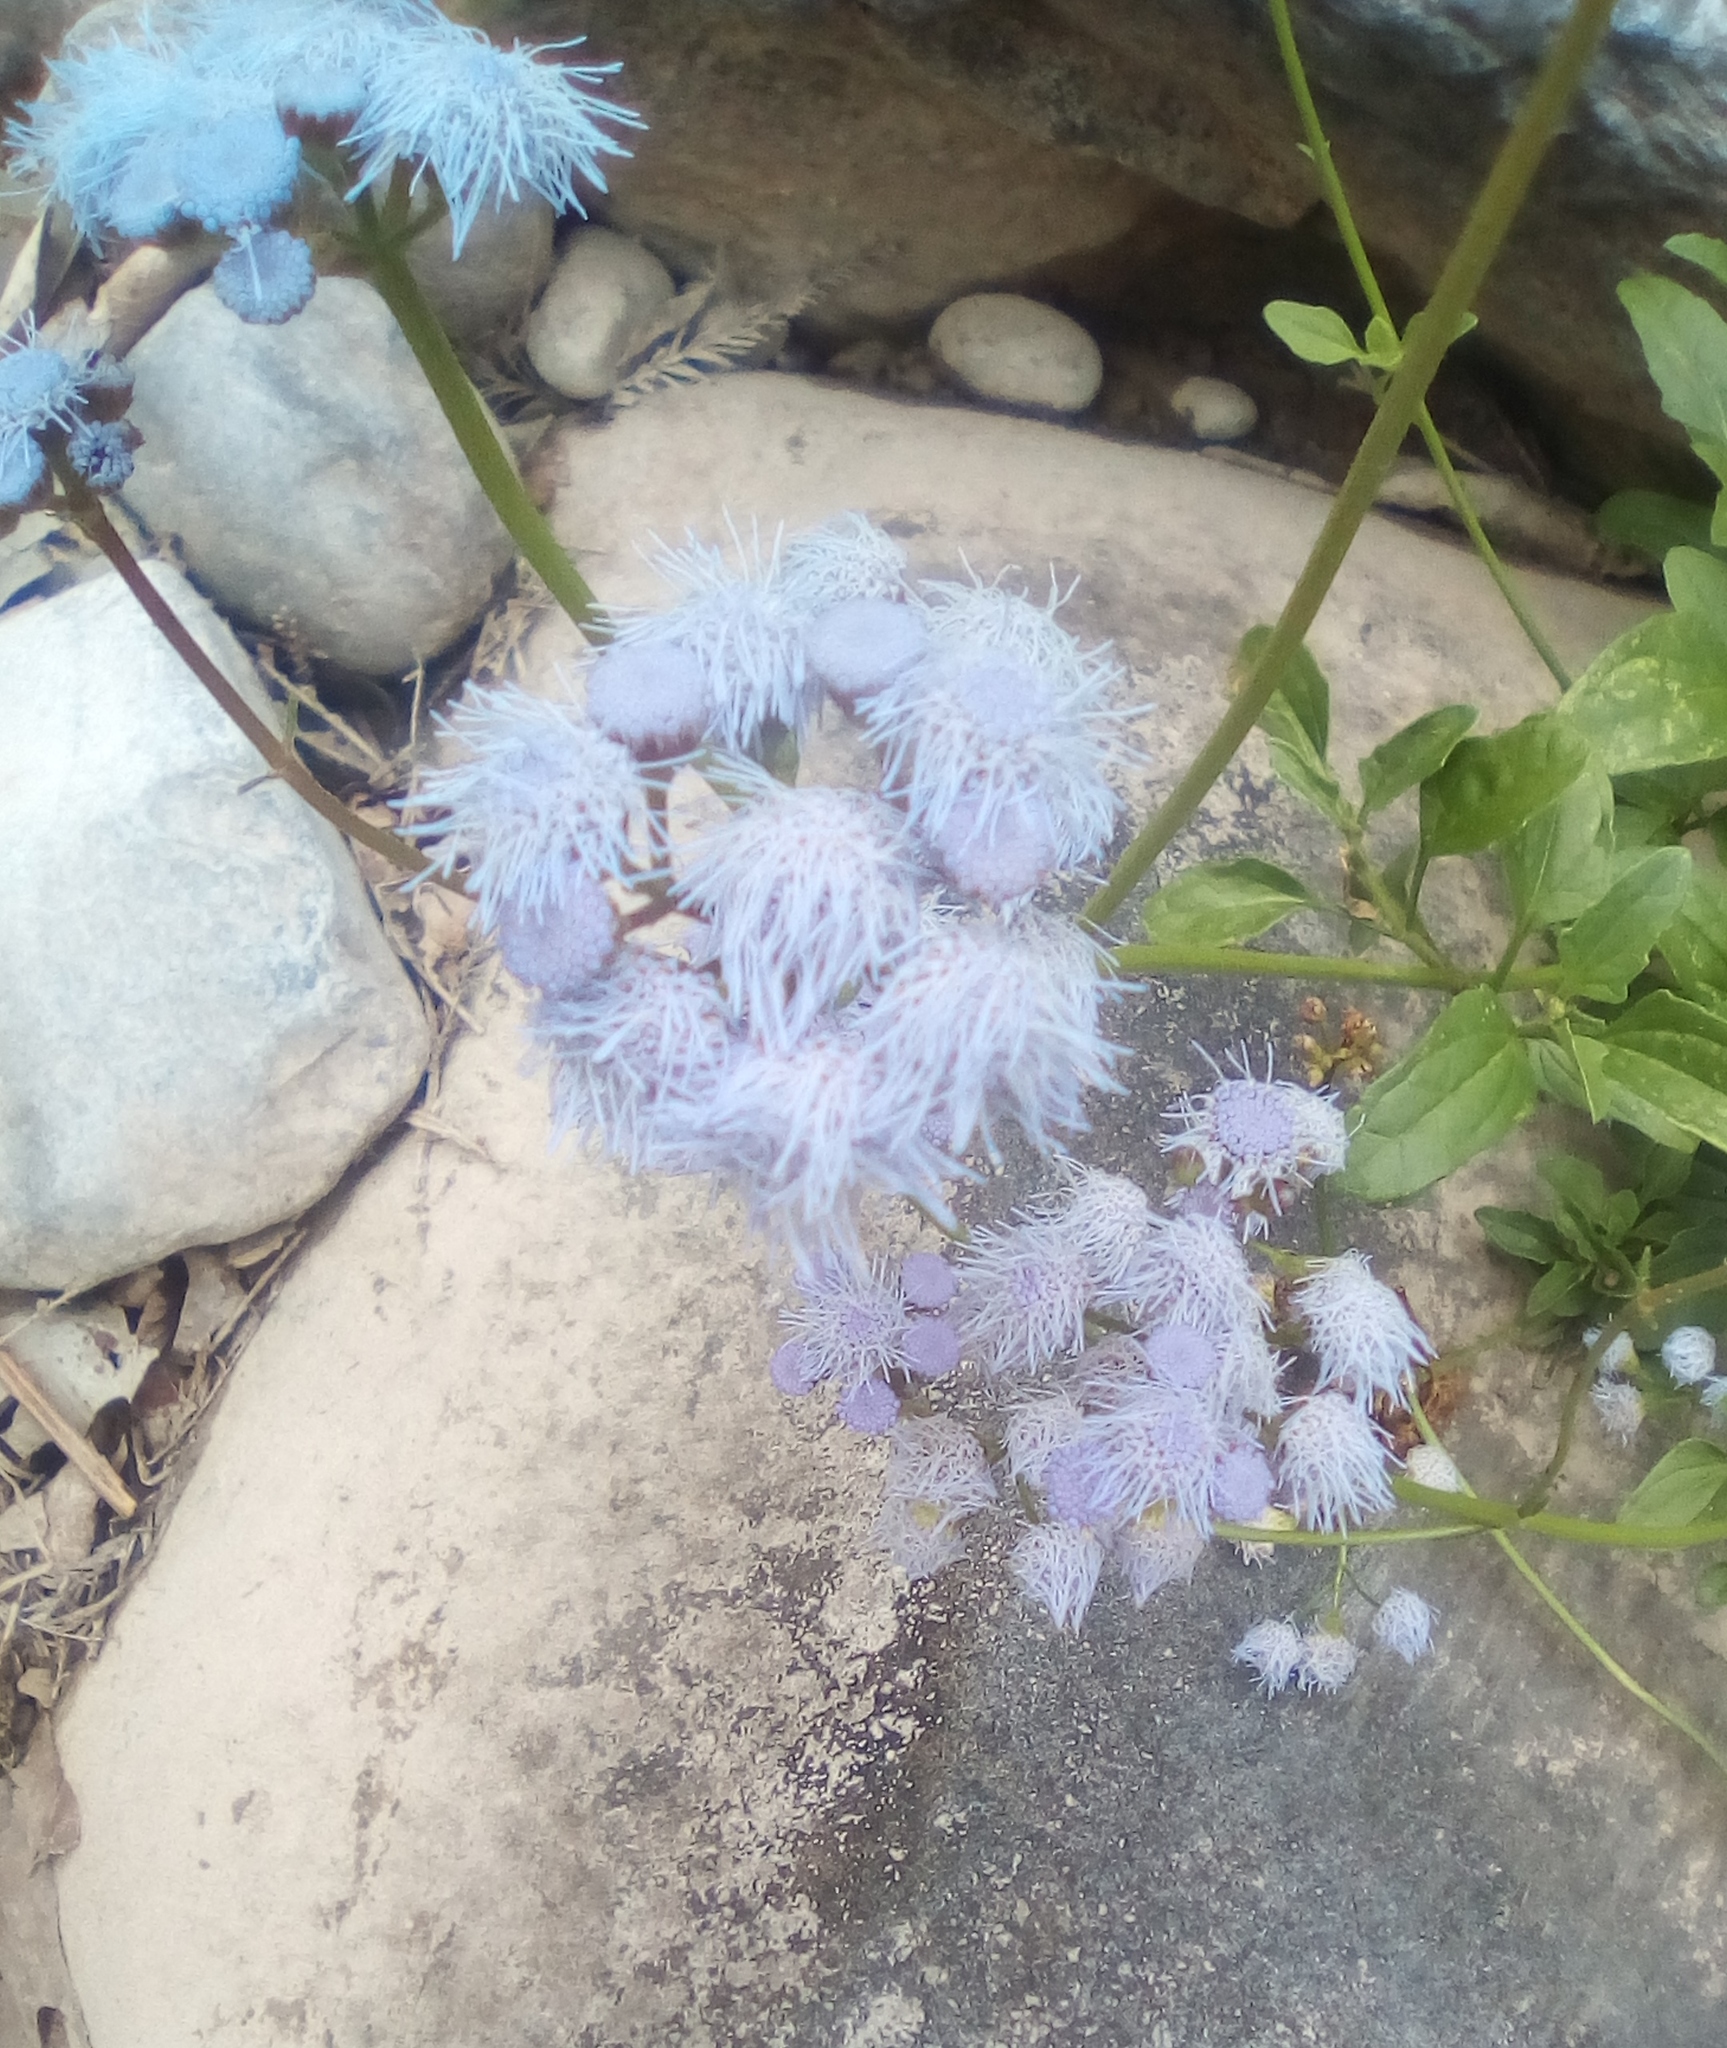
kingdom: Plantae
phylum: Tracheophyta
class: Magnoliopsida
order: Asterales
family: Asteraceae
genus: Conoclinium
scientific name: Conoclinium betonicifolium
